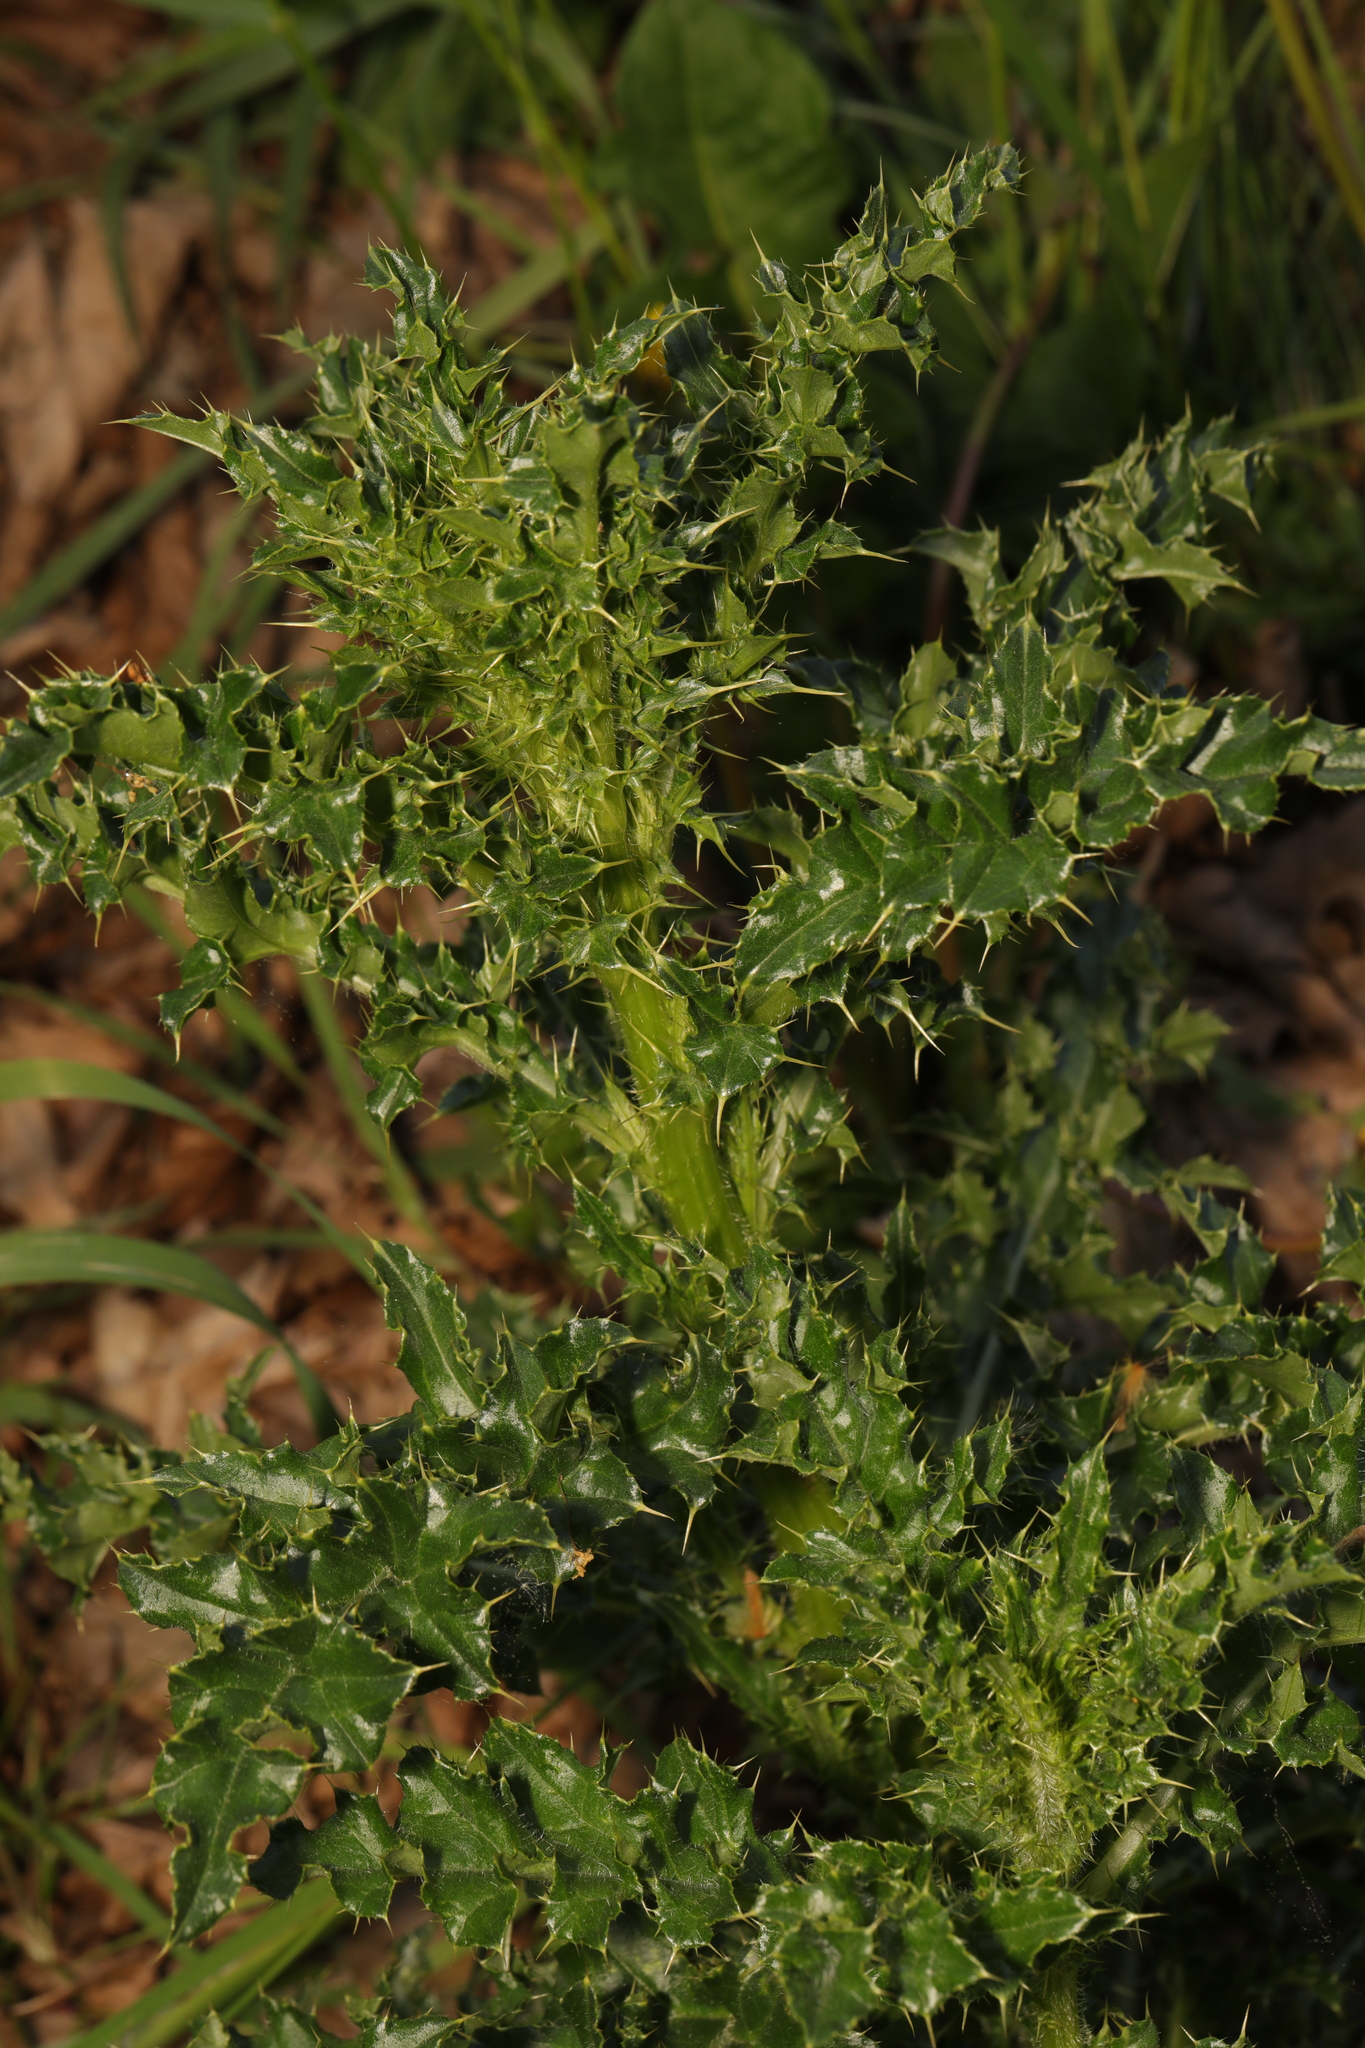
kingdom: Plantae
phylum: Tracheophyta
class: Magnoliopsida
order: Asterales
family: Asteraceae
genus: Cirsium
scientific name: Cirsium arvense
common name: Creeping thistle
